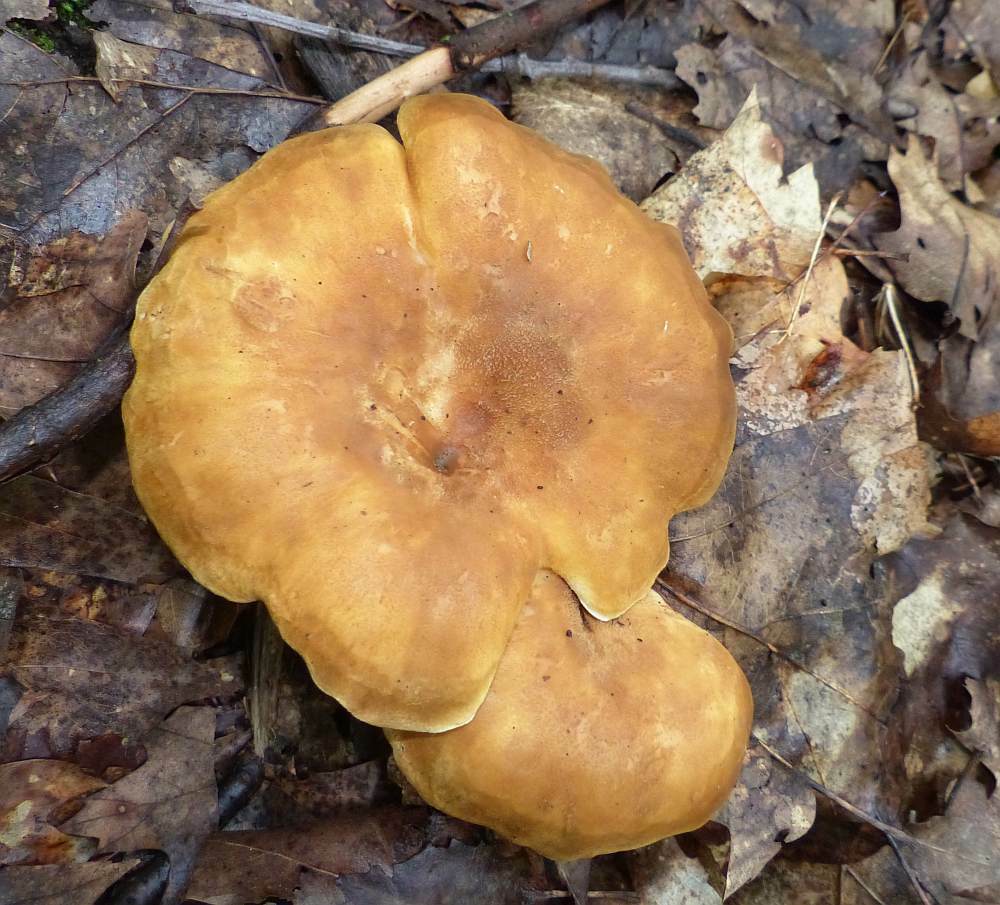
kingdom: Fungi
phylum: Basidiomycota
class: Agaricomycetes
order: Boletales
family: Tapinellaceae
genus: Tapinella
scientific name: Tapinella atrotomentosa
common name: Velvet rollrim
